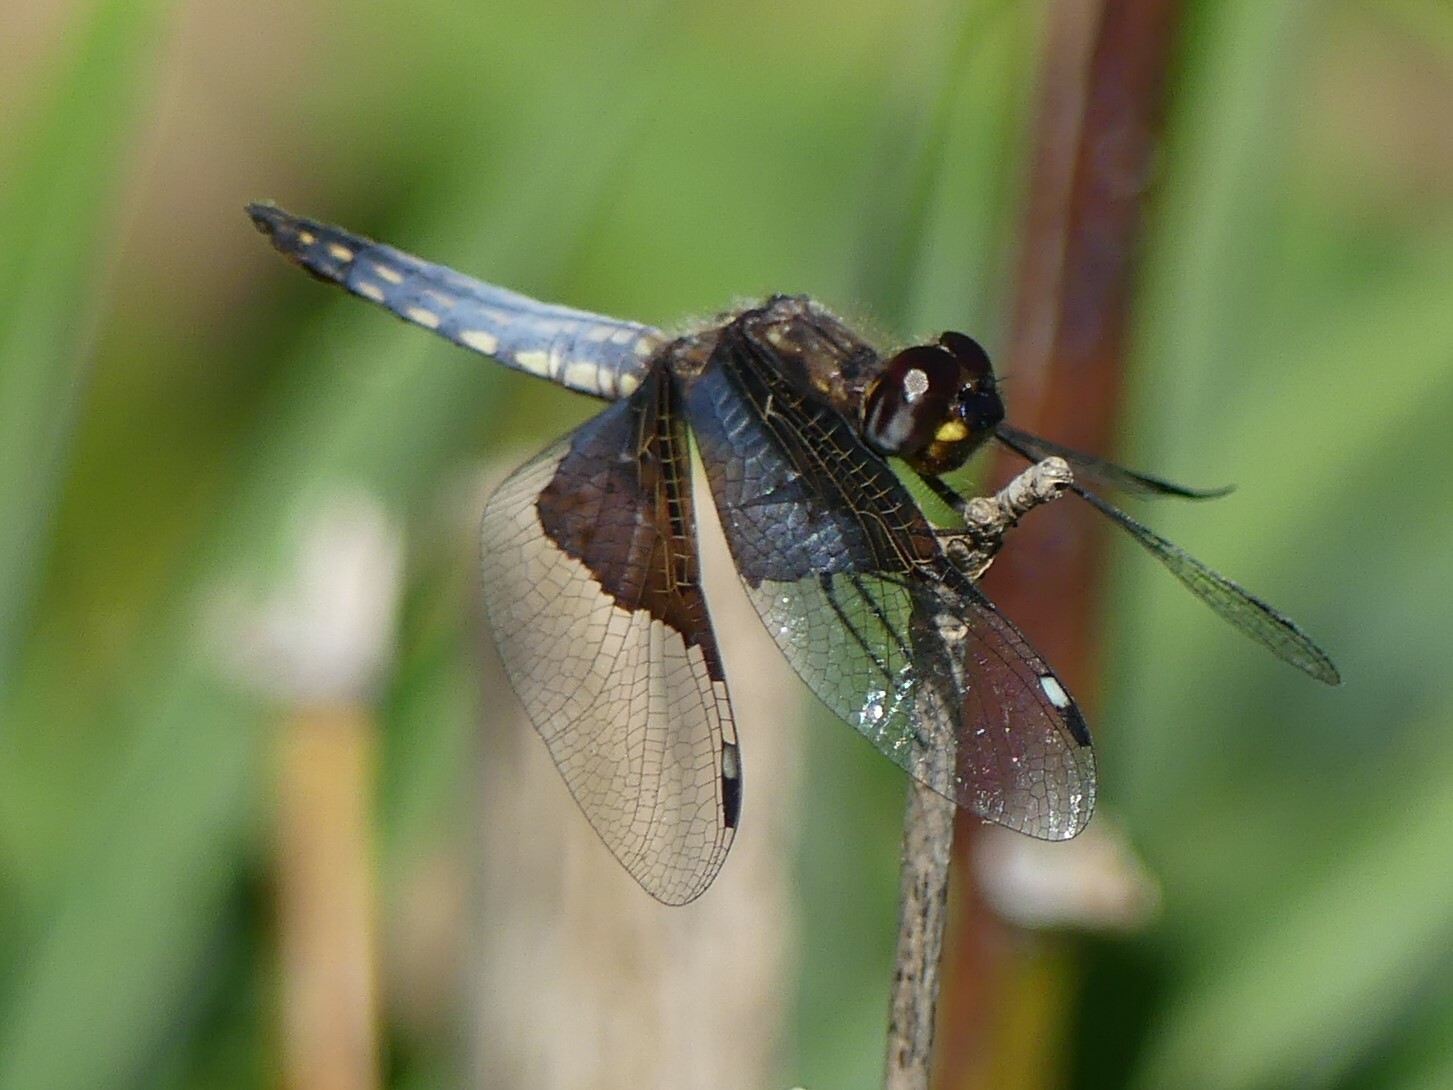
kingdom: Animalia
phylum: Arthropoda
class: Insecta
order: Odonata
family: Libellulidae
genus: Palpopleura
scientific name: Palpopleura vestita
